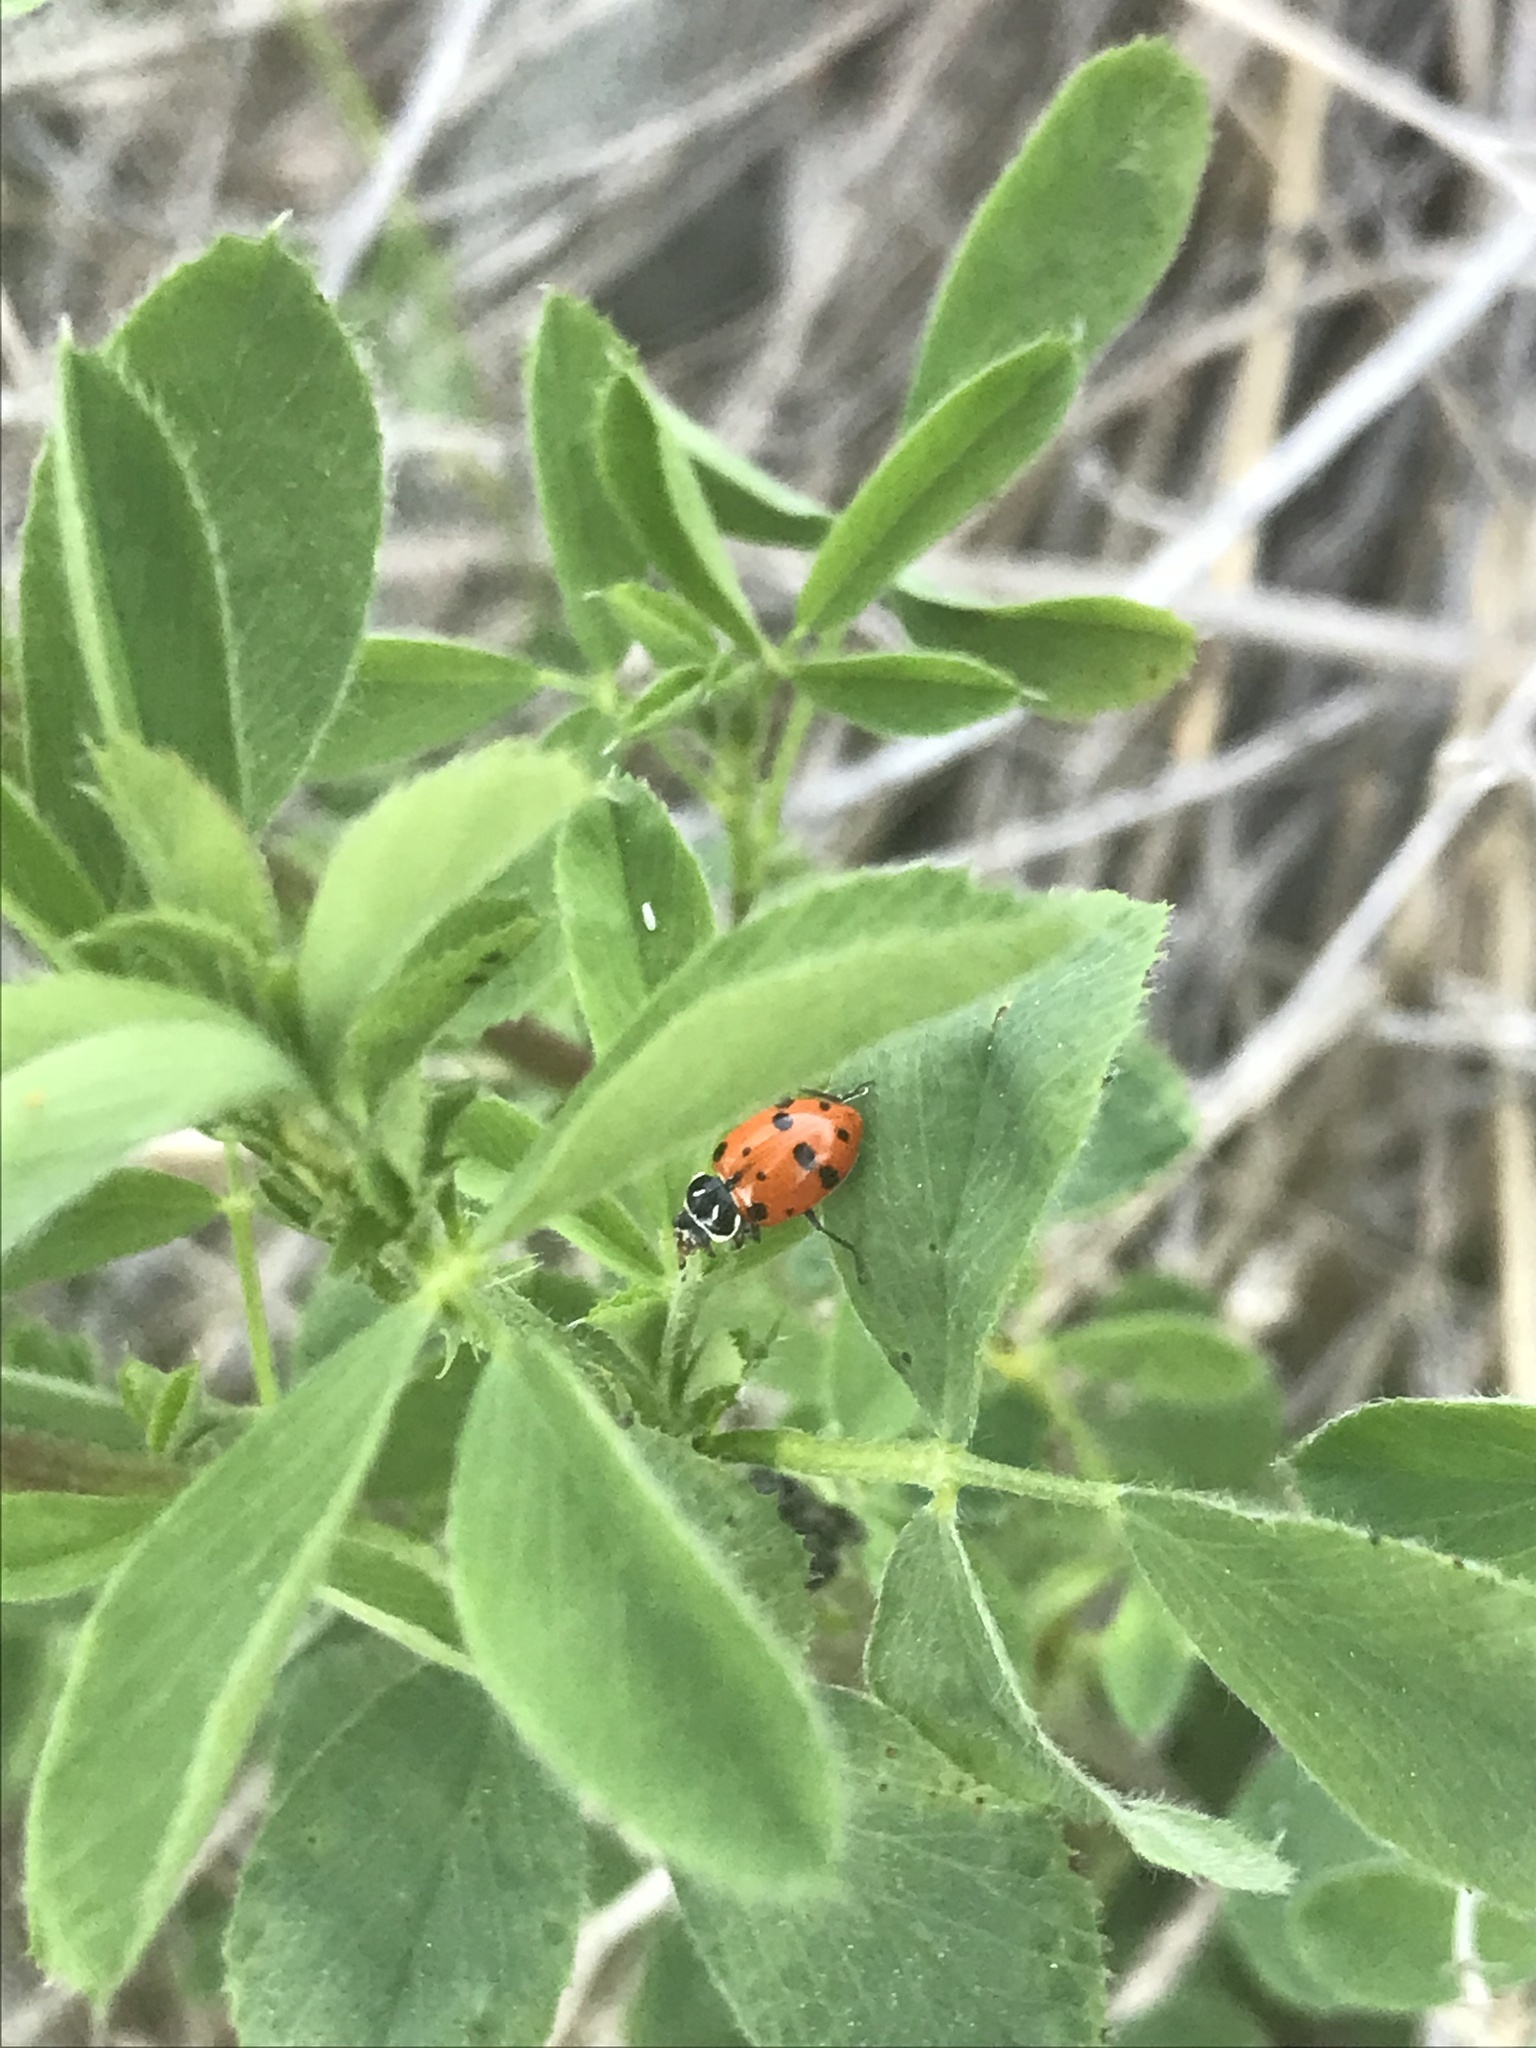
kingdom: Animalia
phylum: Arthropoda
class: Insecta
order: Coleoptera
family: Coccinellidae
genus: Hippodamia
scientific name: Hippodamia convergens
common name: Convergent lady beetle
